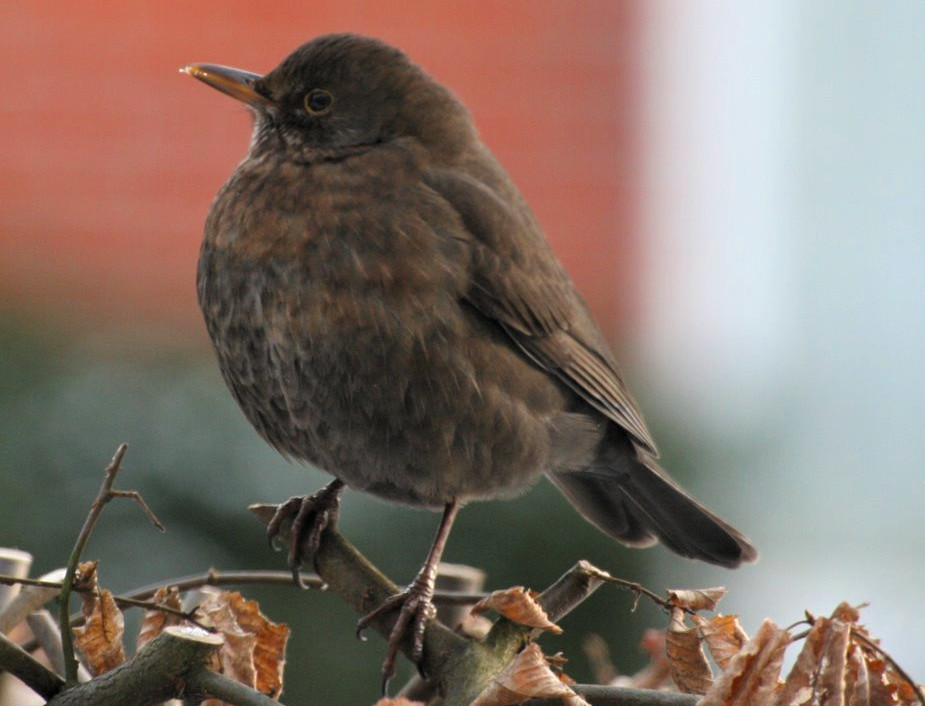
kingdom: Animalia
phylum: Chordata
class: Aves
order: Passeriformes
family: Turdidae
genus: Turdus
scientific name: Turdus merula
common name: Common blackbird
